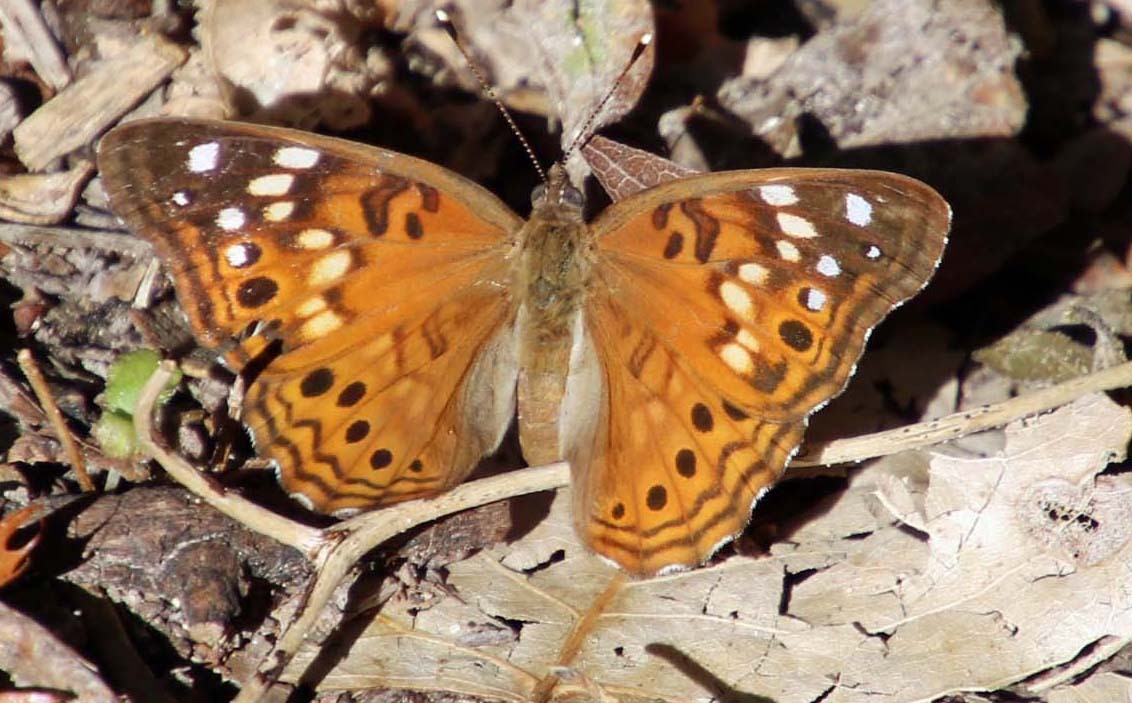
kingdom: Animalia
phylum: Arthropoda
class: Insecta
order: Lepidoptera
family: Nymphalidae
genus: Asterocampa
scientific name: Asterocampa celtis
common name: Hackberry emperor
